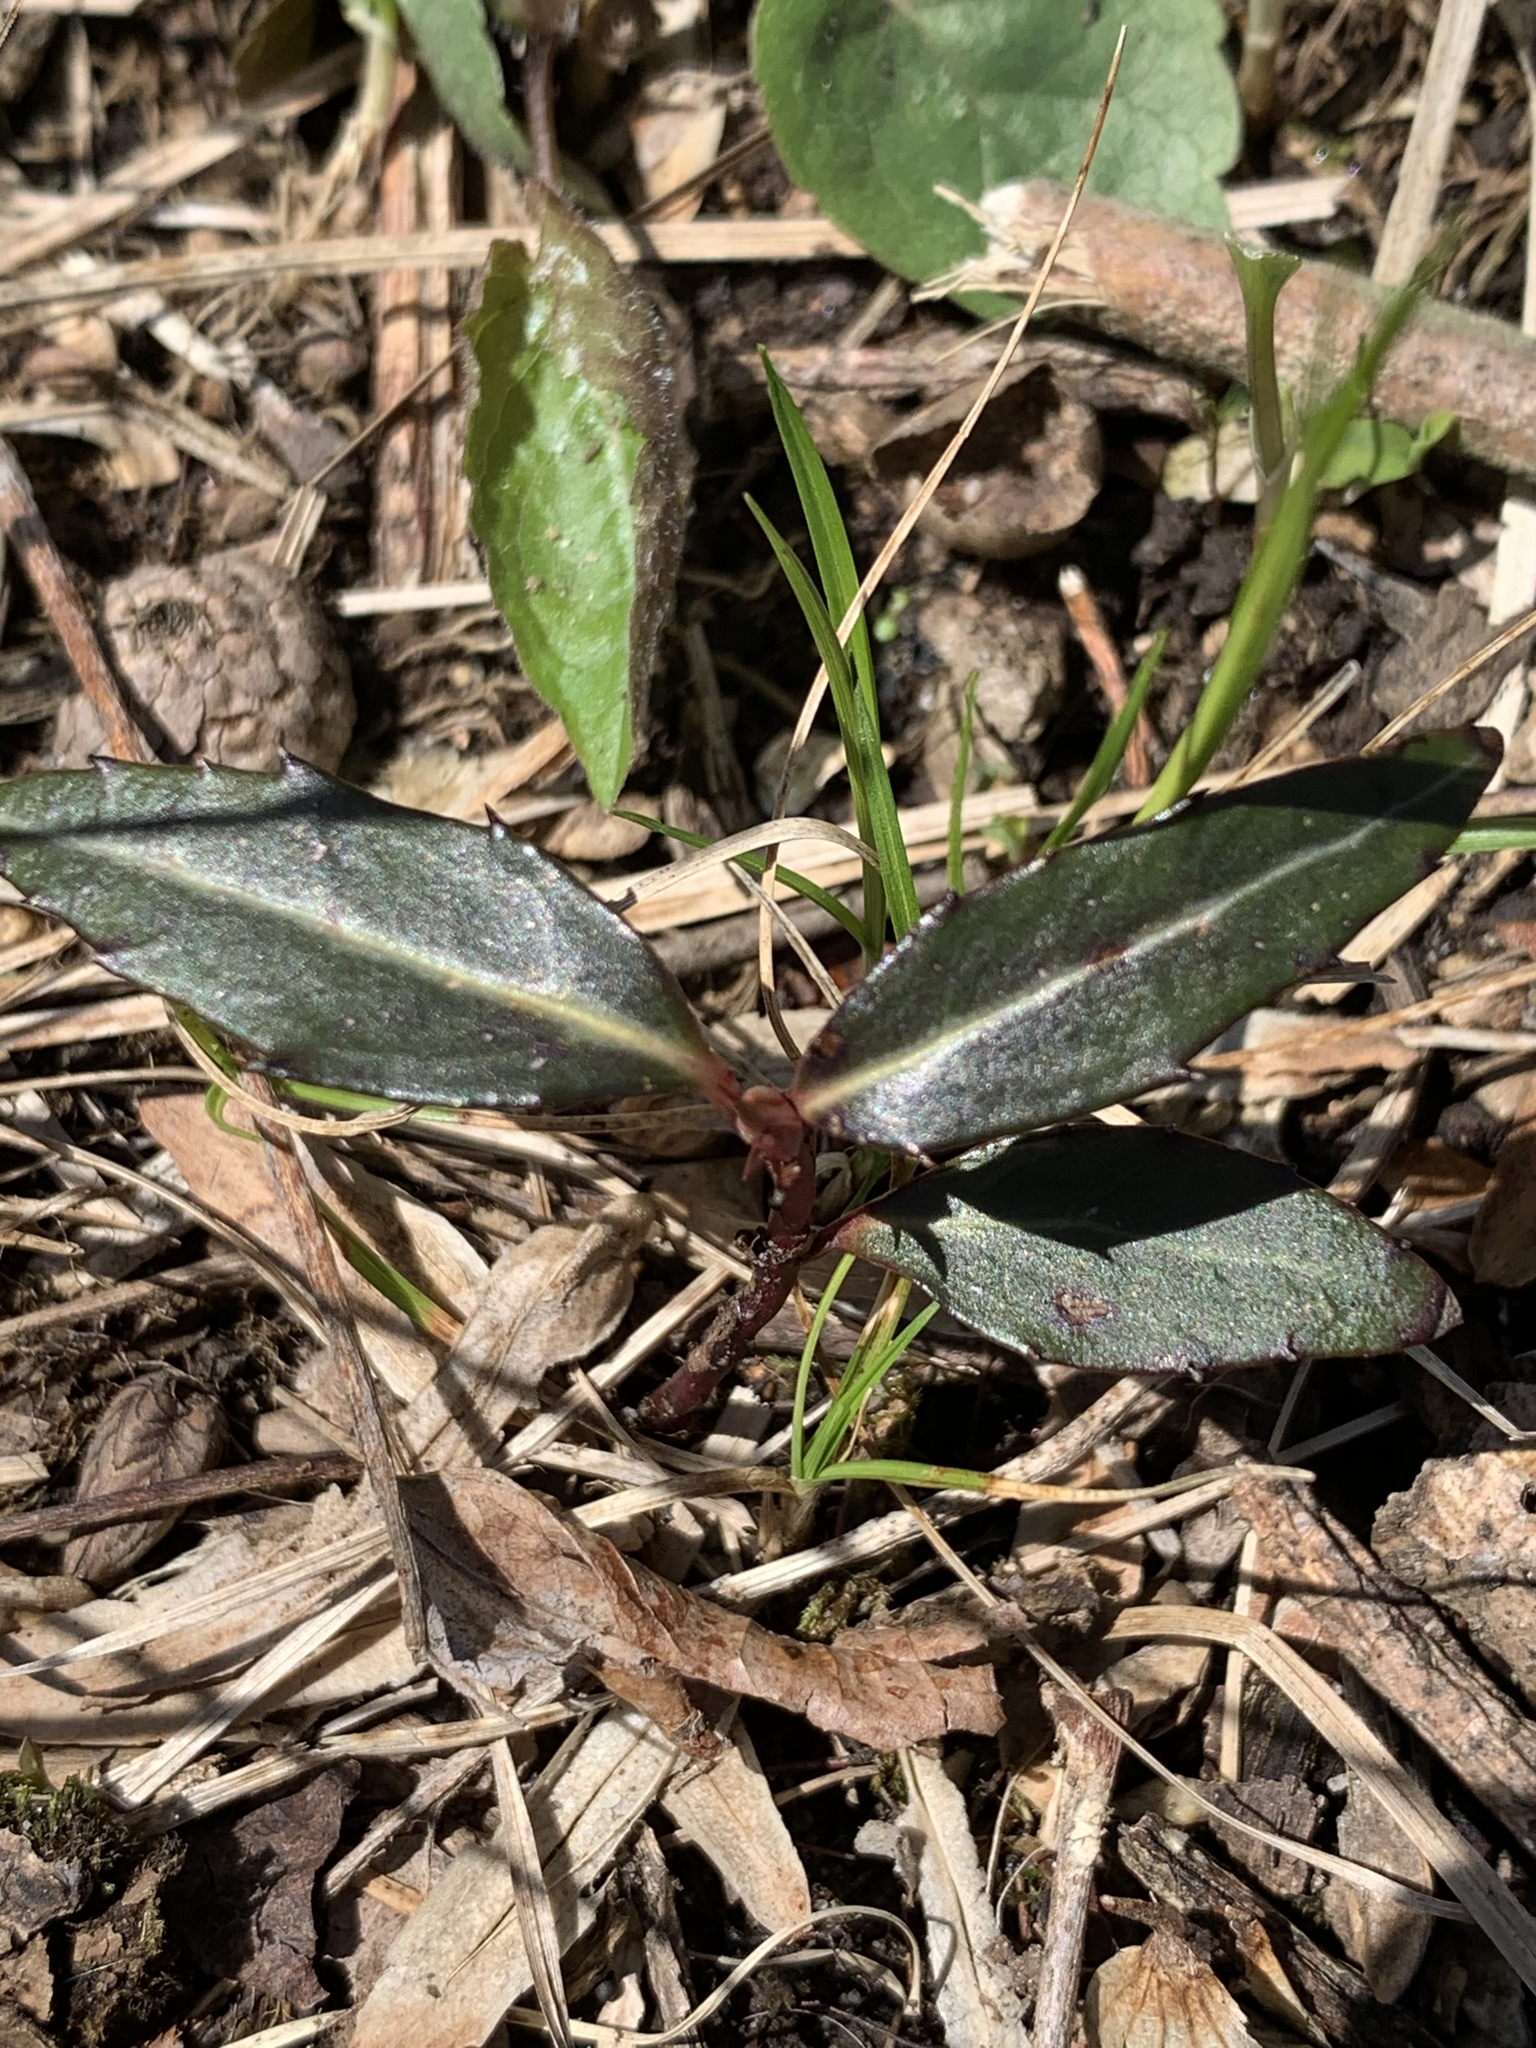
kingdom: Plantae
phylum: Tracheophyta
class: Magnoliopsida
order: Ericales
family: Ericaceae
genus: Chimaphila
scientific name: Chimaphila maculata
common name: Spotted pipsissewa
